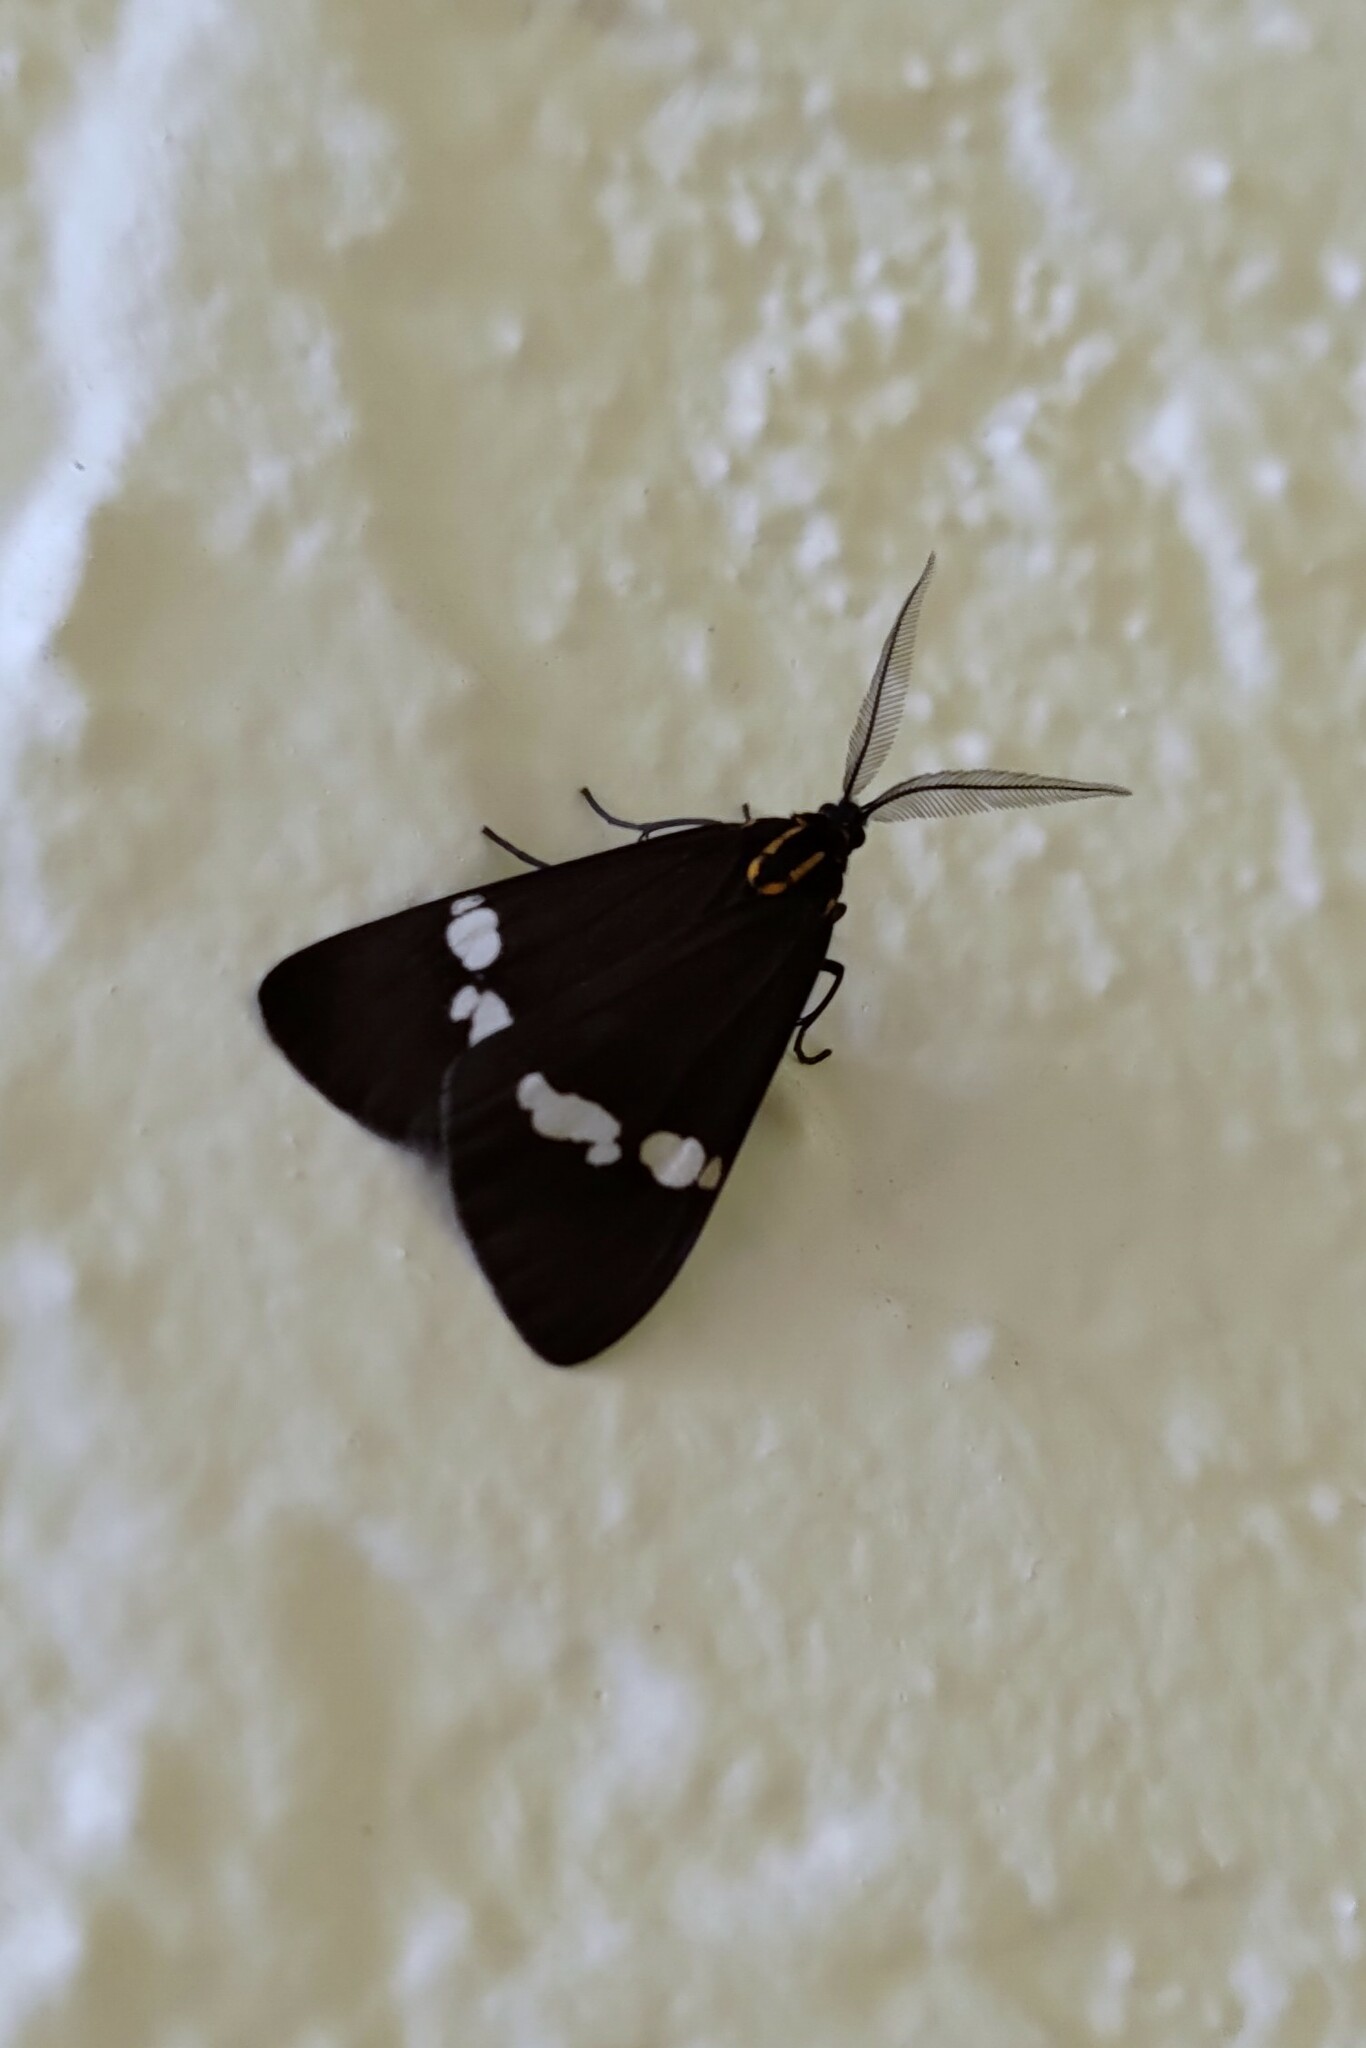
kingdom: Animalia
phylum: Arthropoda
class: Insecta
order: Lepidoptera
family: Erebidae
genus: Nyctemera
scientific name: Nyctemera annulatum
